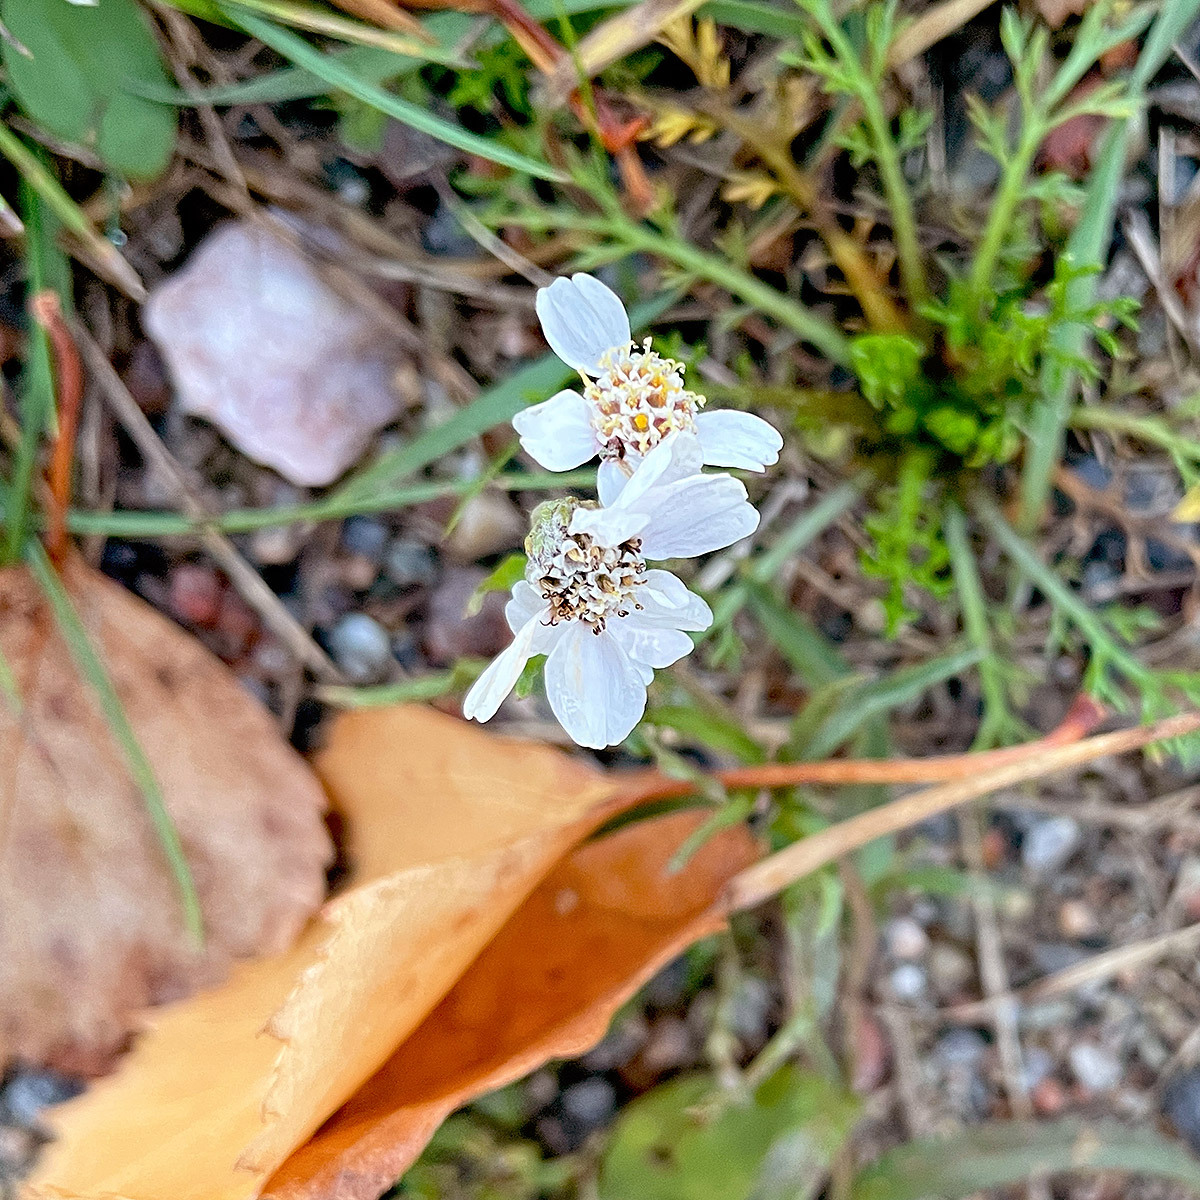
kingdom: Plantae
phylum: Tracheophyta
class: Magnoliopsida
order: Asterales
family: Asteraceae
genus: Achillea
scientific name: Achillea ptarmica
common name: Sneezeweed
